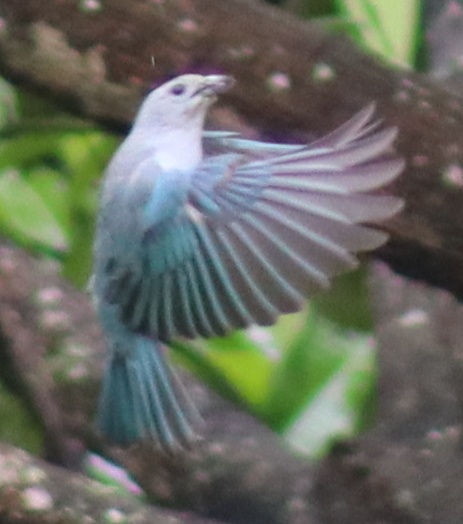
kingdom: Animalia
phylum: Chordata
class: Aves
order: Passeriformes
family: Thraupidae
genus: Thraupis
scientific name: Thraupis sayaca
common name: Sayaca tanager
